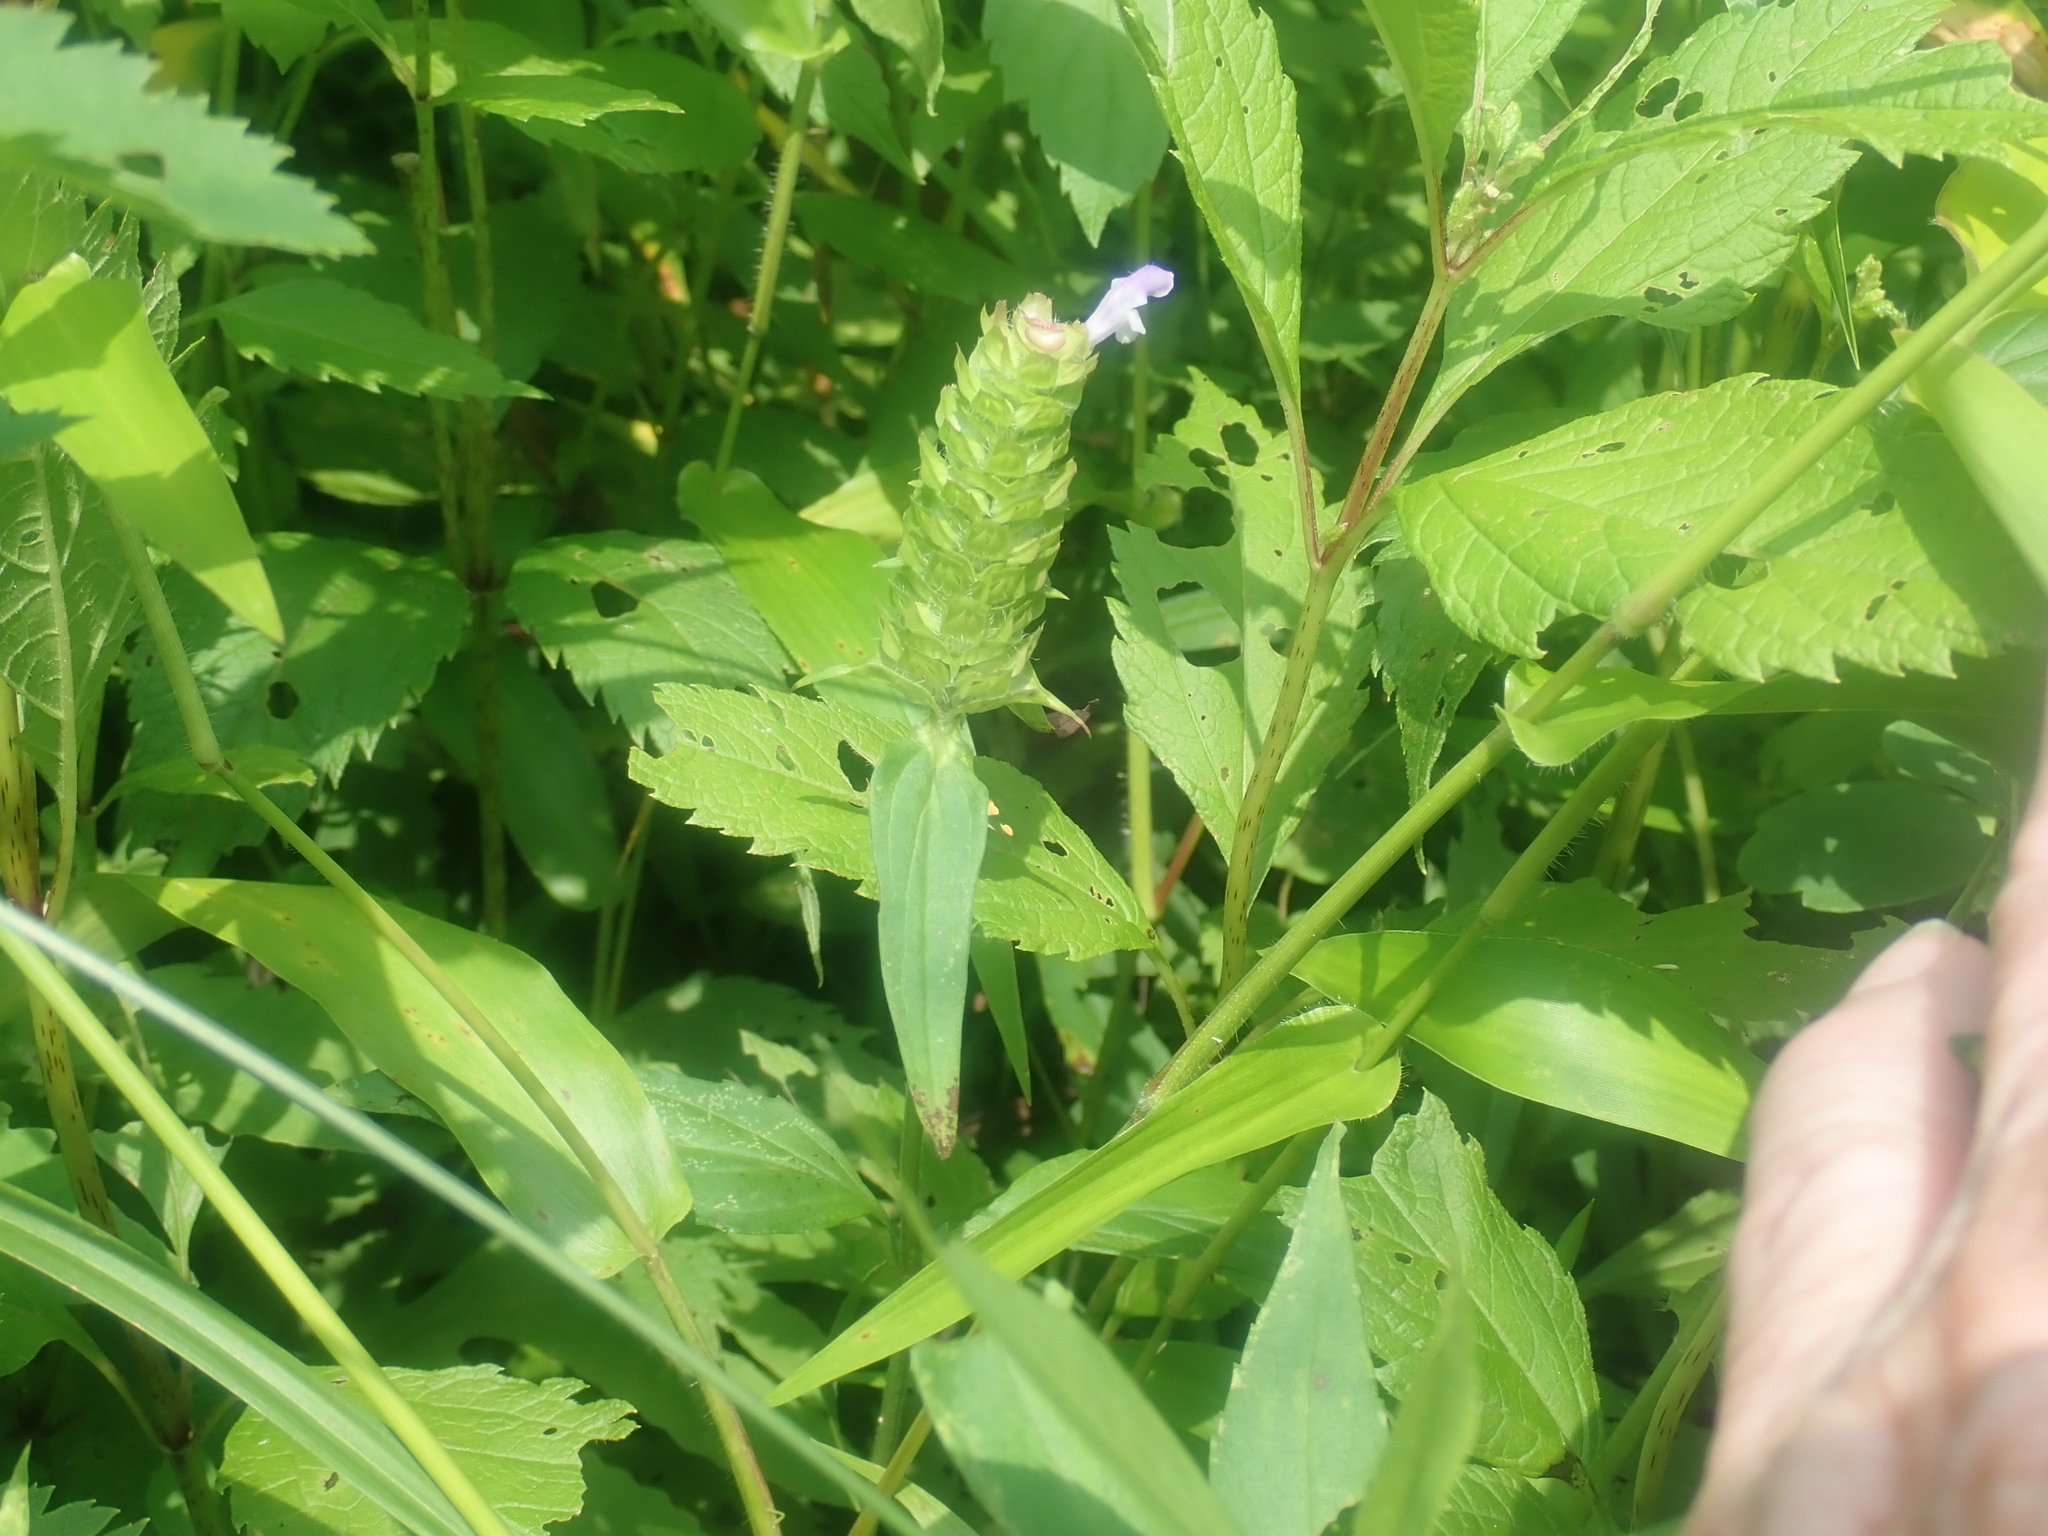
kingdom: Plantae
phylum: Tracheophyta
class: Magnoliopsida
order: Lamiales
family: Lamiaceae
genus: Prunella
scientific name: Prunella vulgaris
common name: Heal-all
